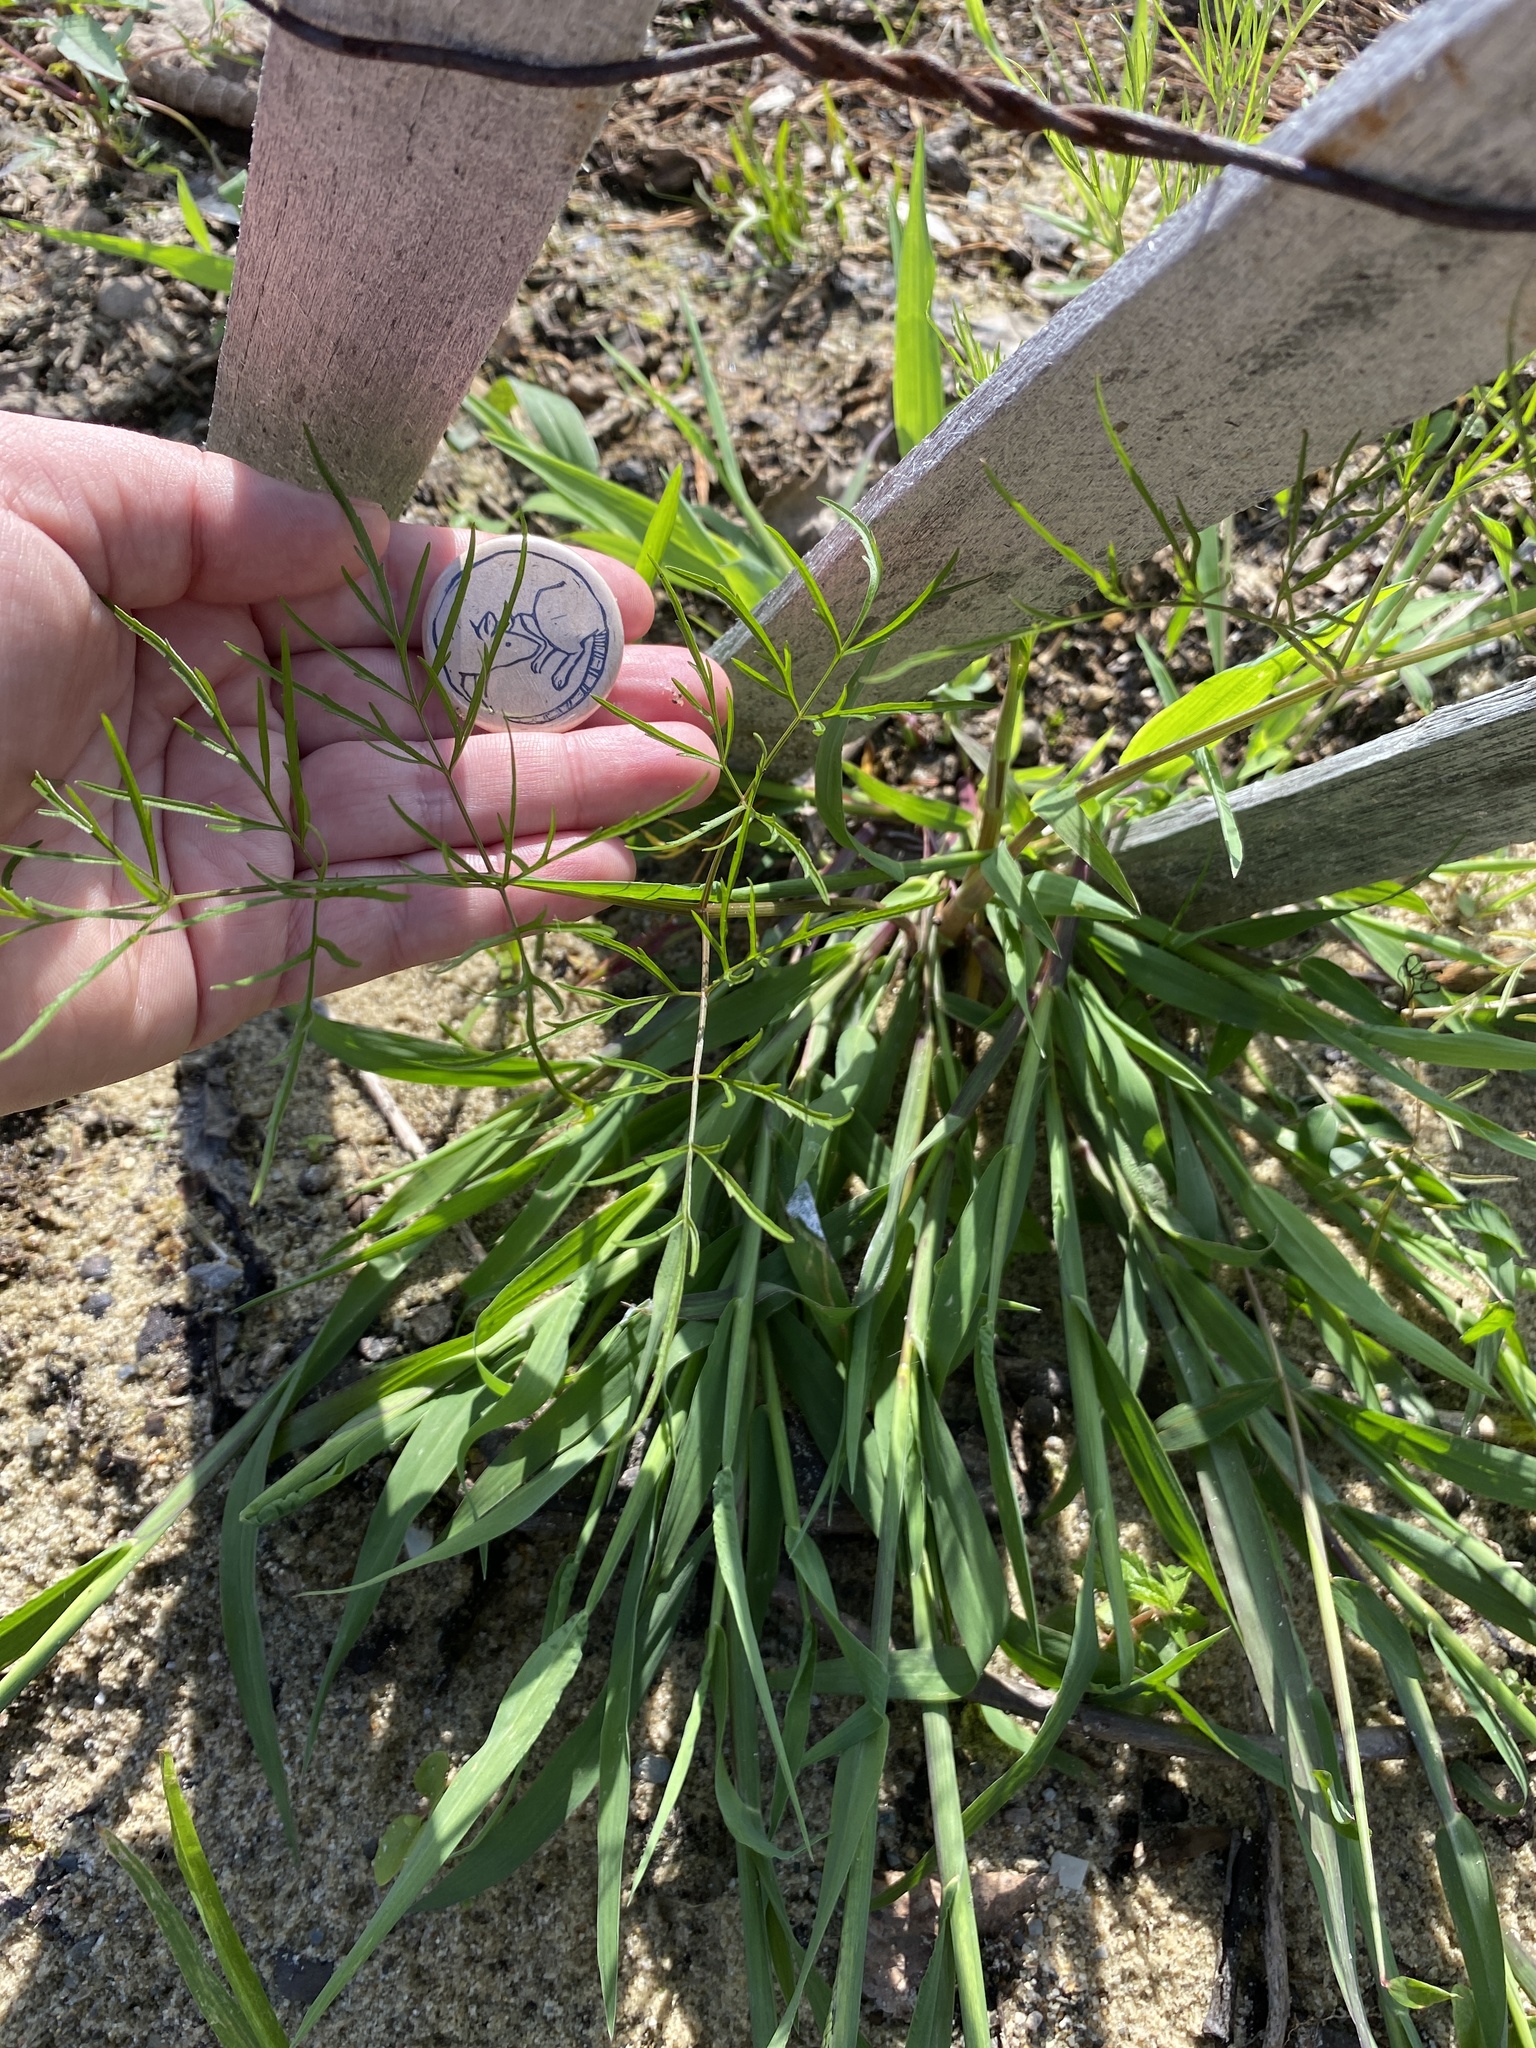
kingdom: Plantae
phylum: Tracheophyta
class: Magnoliopsida
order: Apiales
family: Apiaceae
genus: Cicuta
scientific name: Cicuta bulbifera
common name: Bulb-bearing water-hemlock
